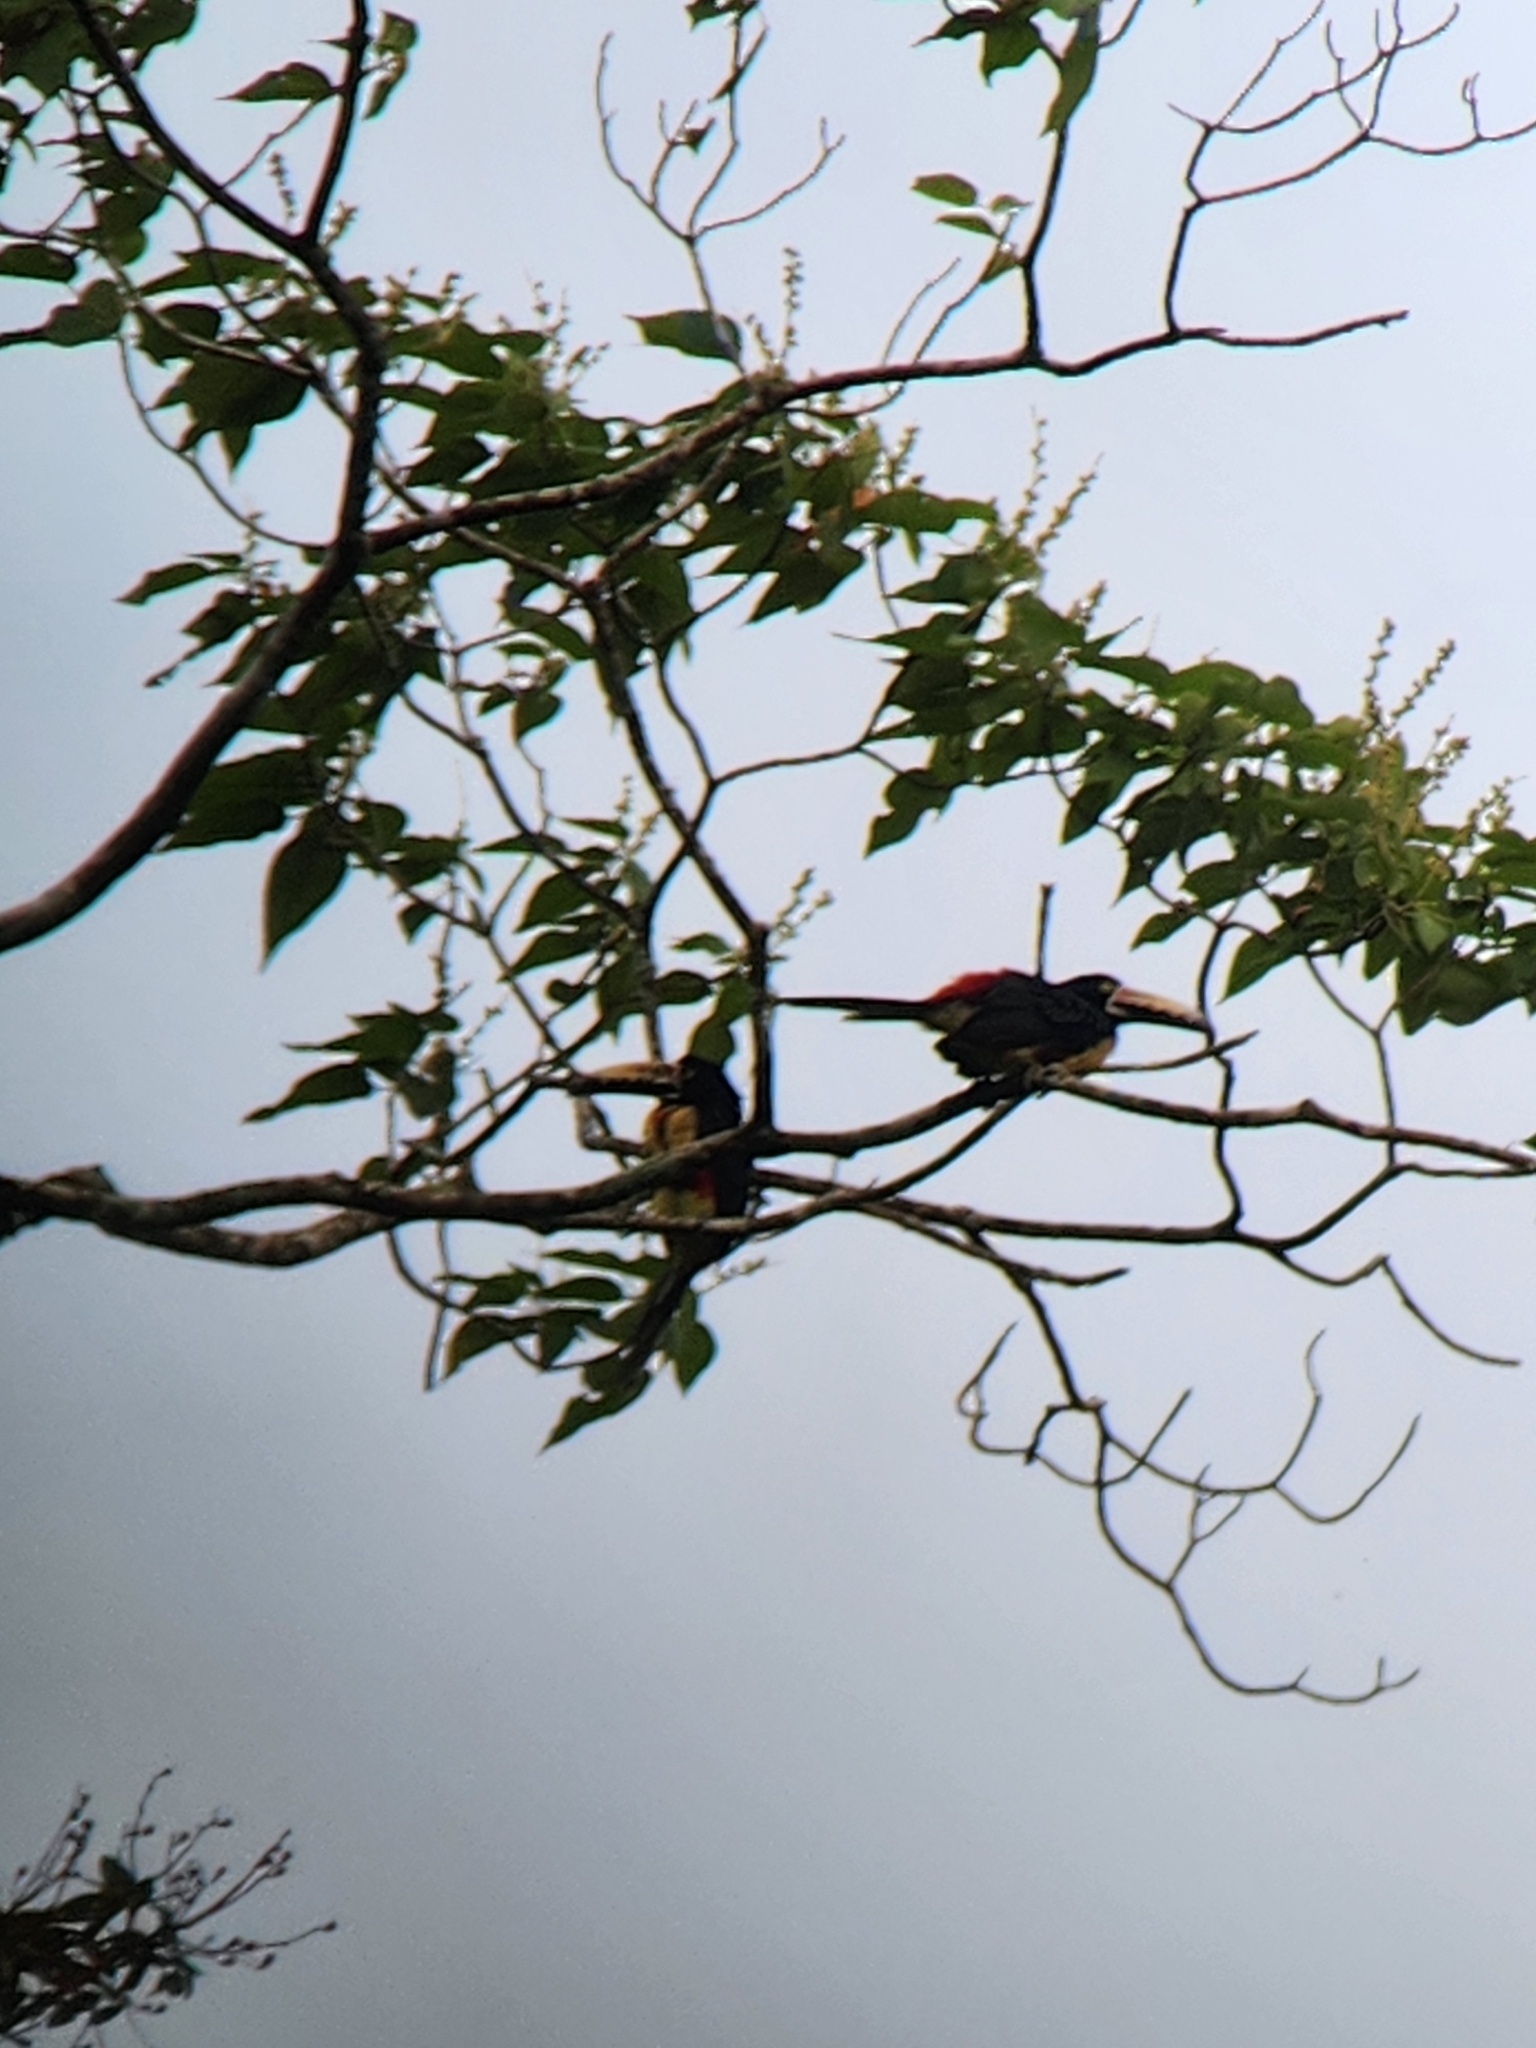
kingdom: Animalia
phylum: Chordata
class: Aves
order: Piciformes
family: Ramphastidae
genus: Pteroglossus
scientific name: Pteroglossus torquatus
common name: Collared aracari
